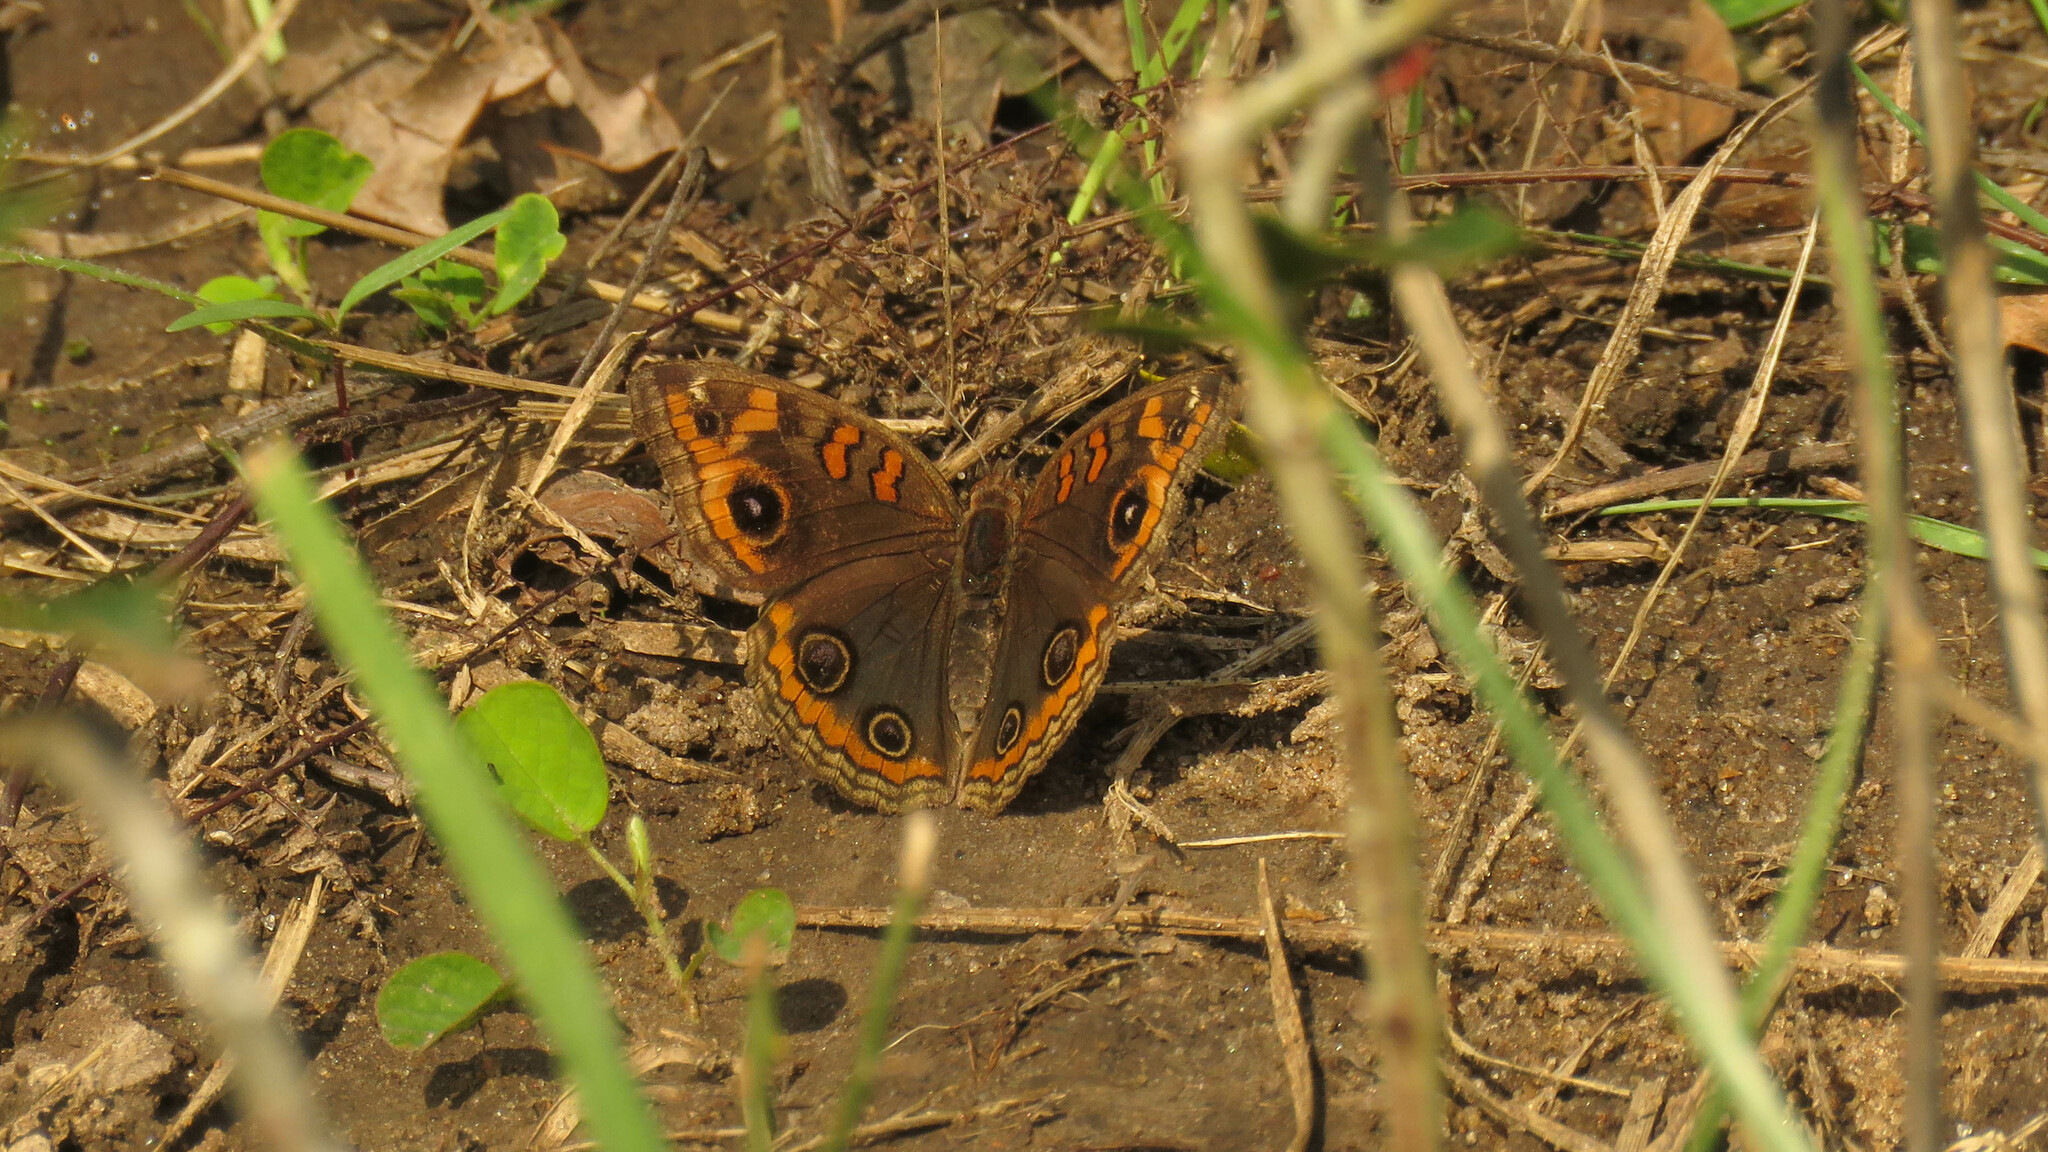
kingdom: Animalia
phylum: Arthropoda
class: Insecta
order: Lepidoptera
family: Nymphalidae
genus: Junonia
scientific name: Junonia lavinia
